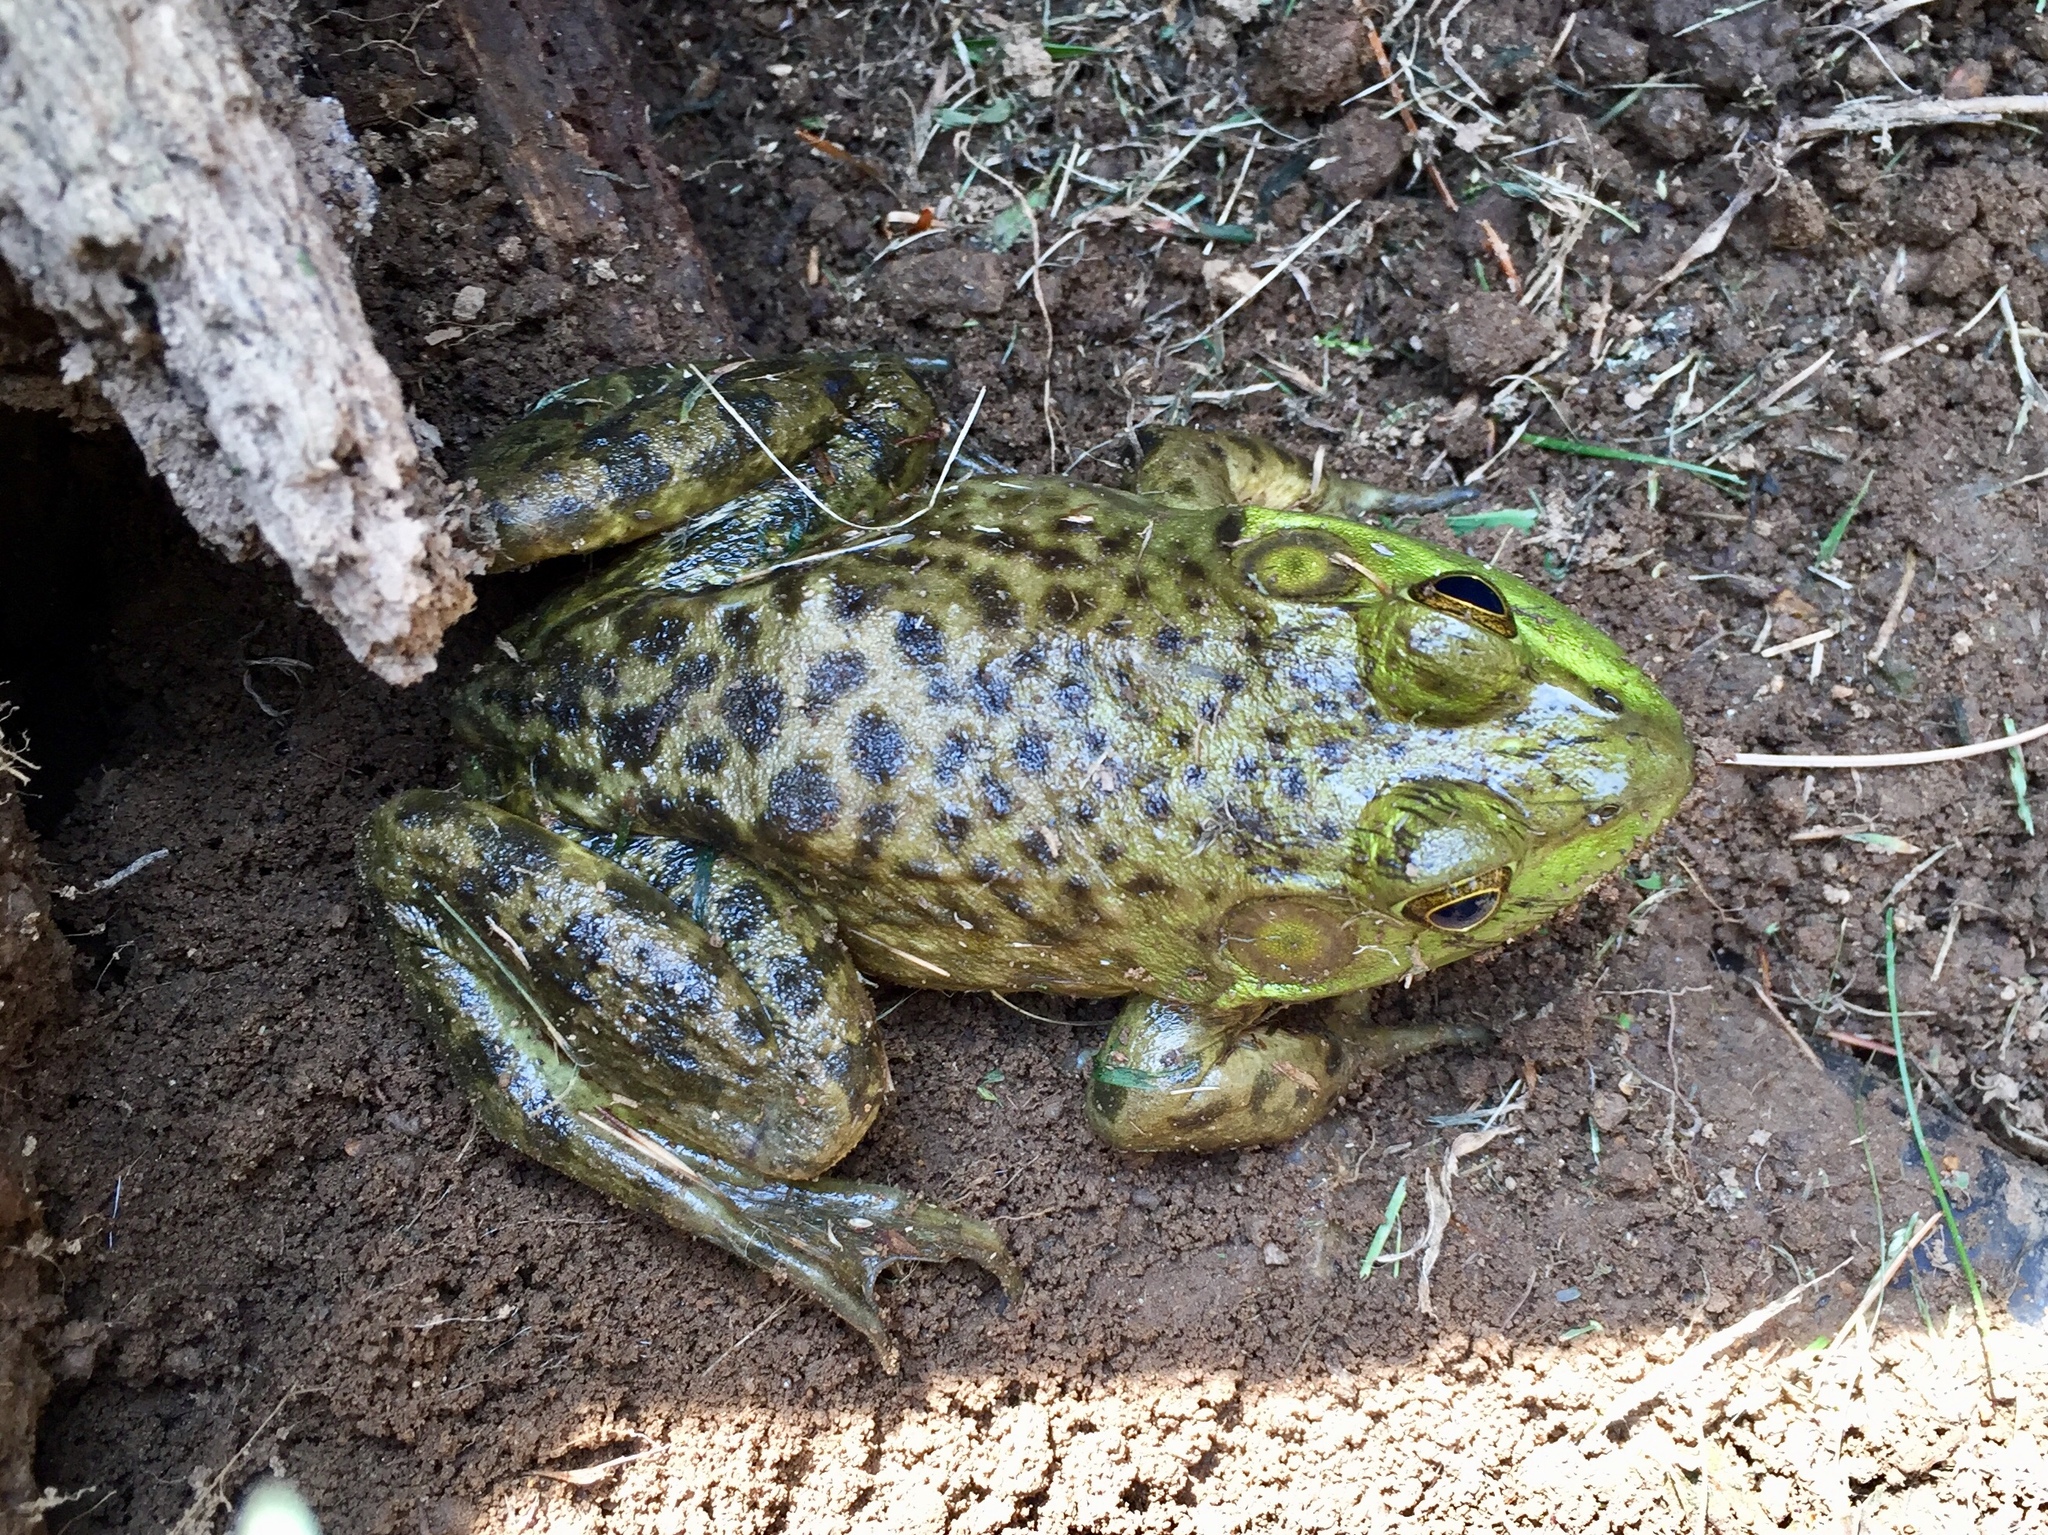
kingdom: Animalia
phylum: Chordata
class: Amphibia
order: Anura
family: Ranidae
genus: Lithobates
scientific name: Lithobates catesbeianus
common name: American bullfrog
